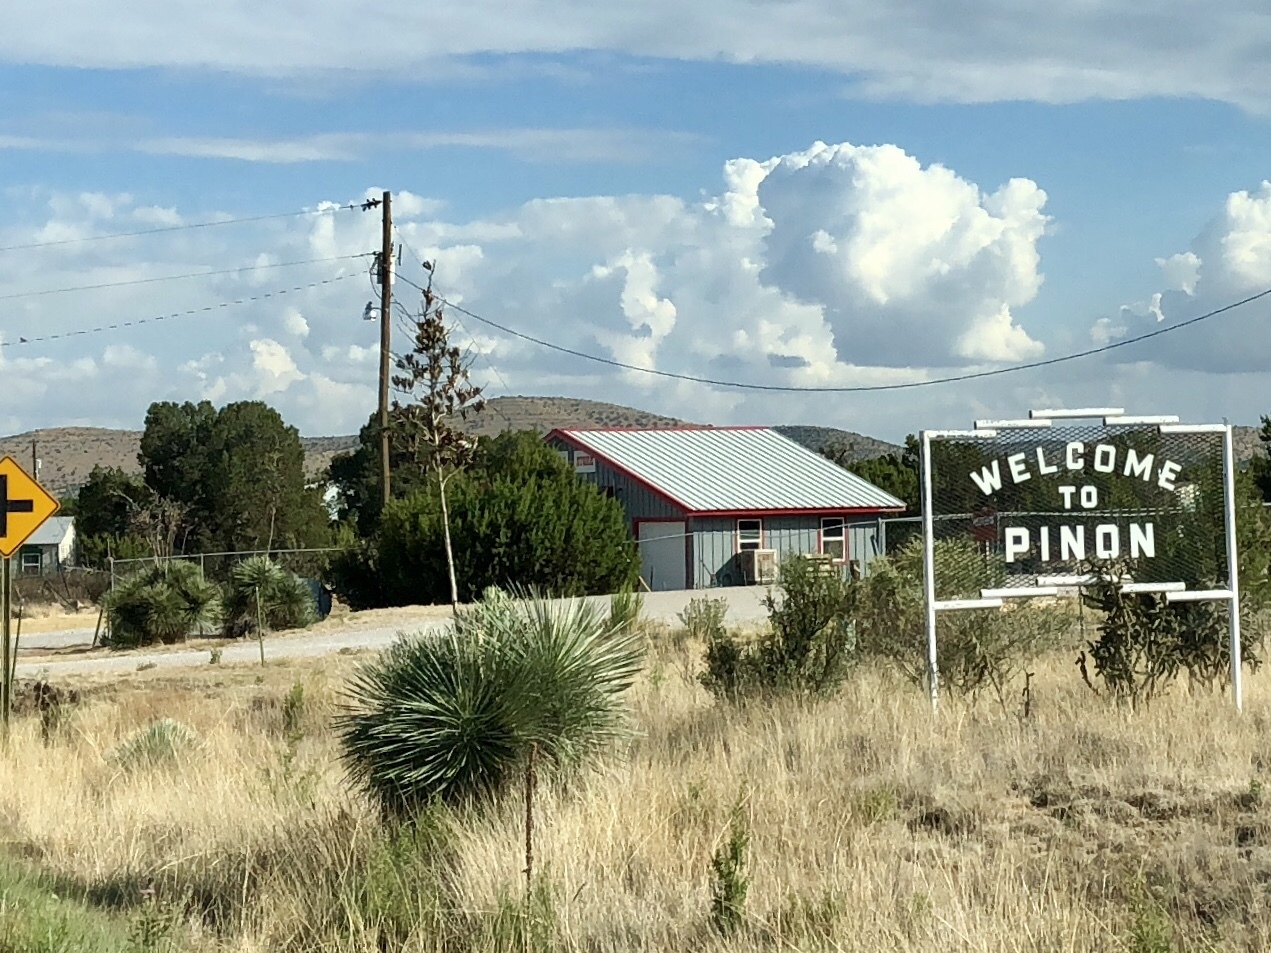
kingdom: Plantae
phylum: Tracheophyta
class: Liliopsida
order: Asparagales
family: Asparagaceae
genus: Yucca
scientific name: Yucca elata
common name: Palmella
